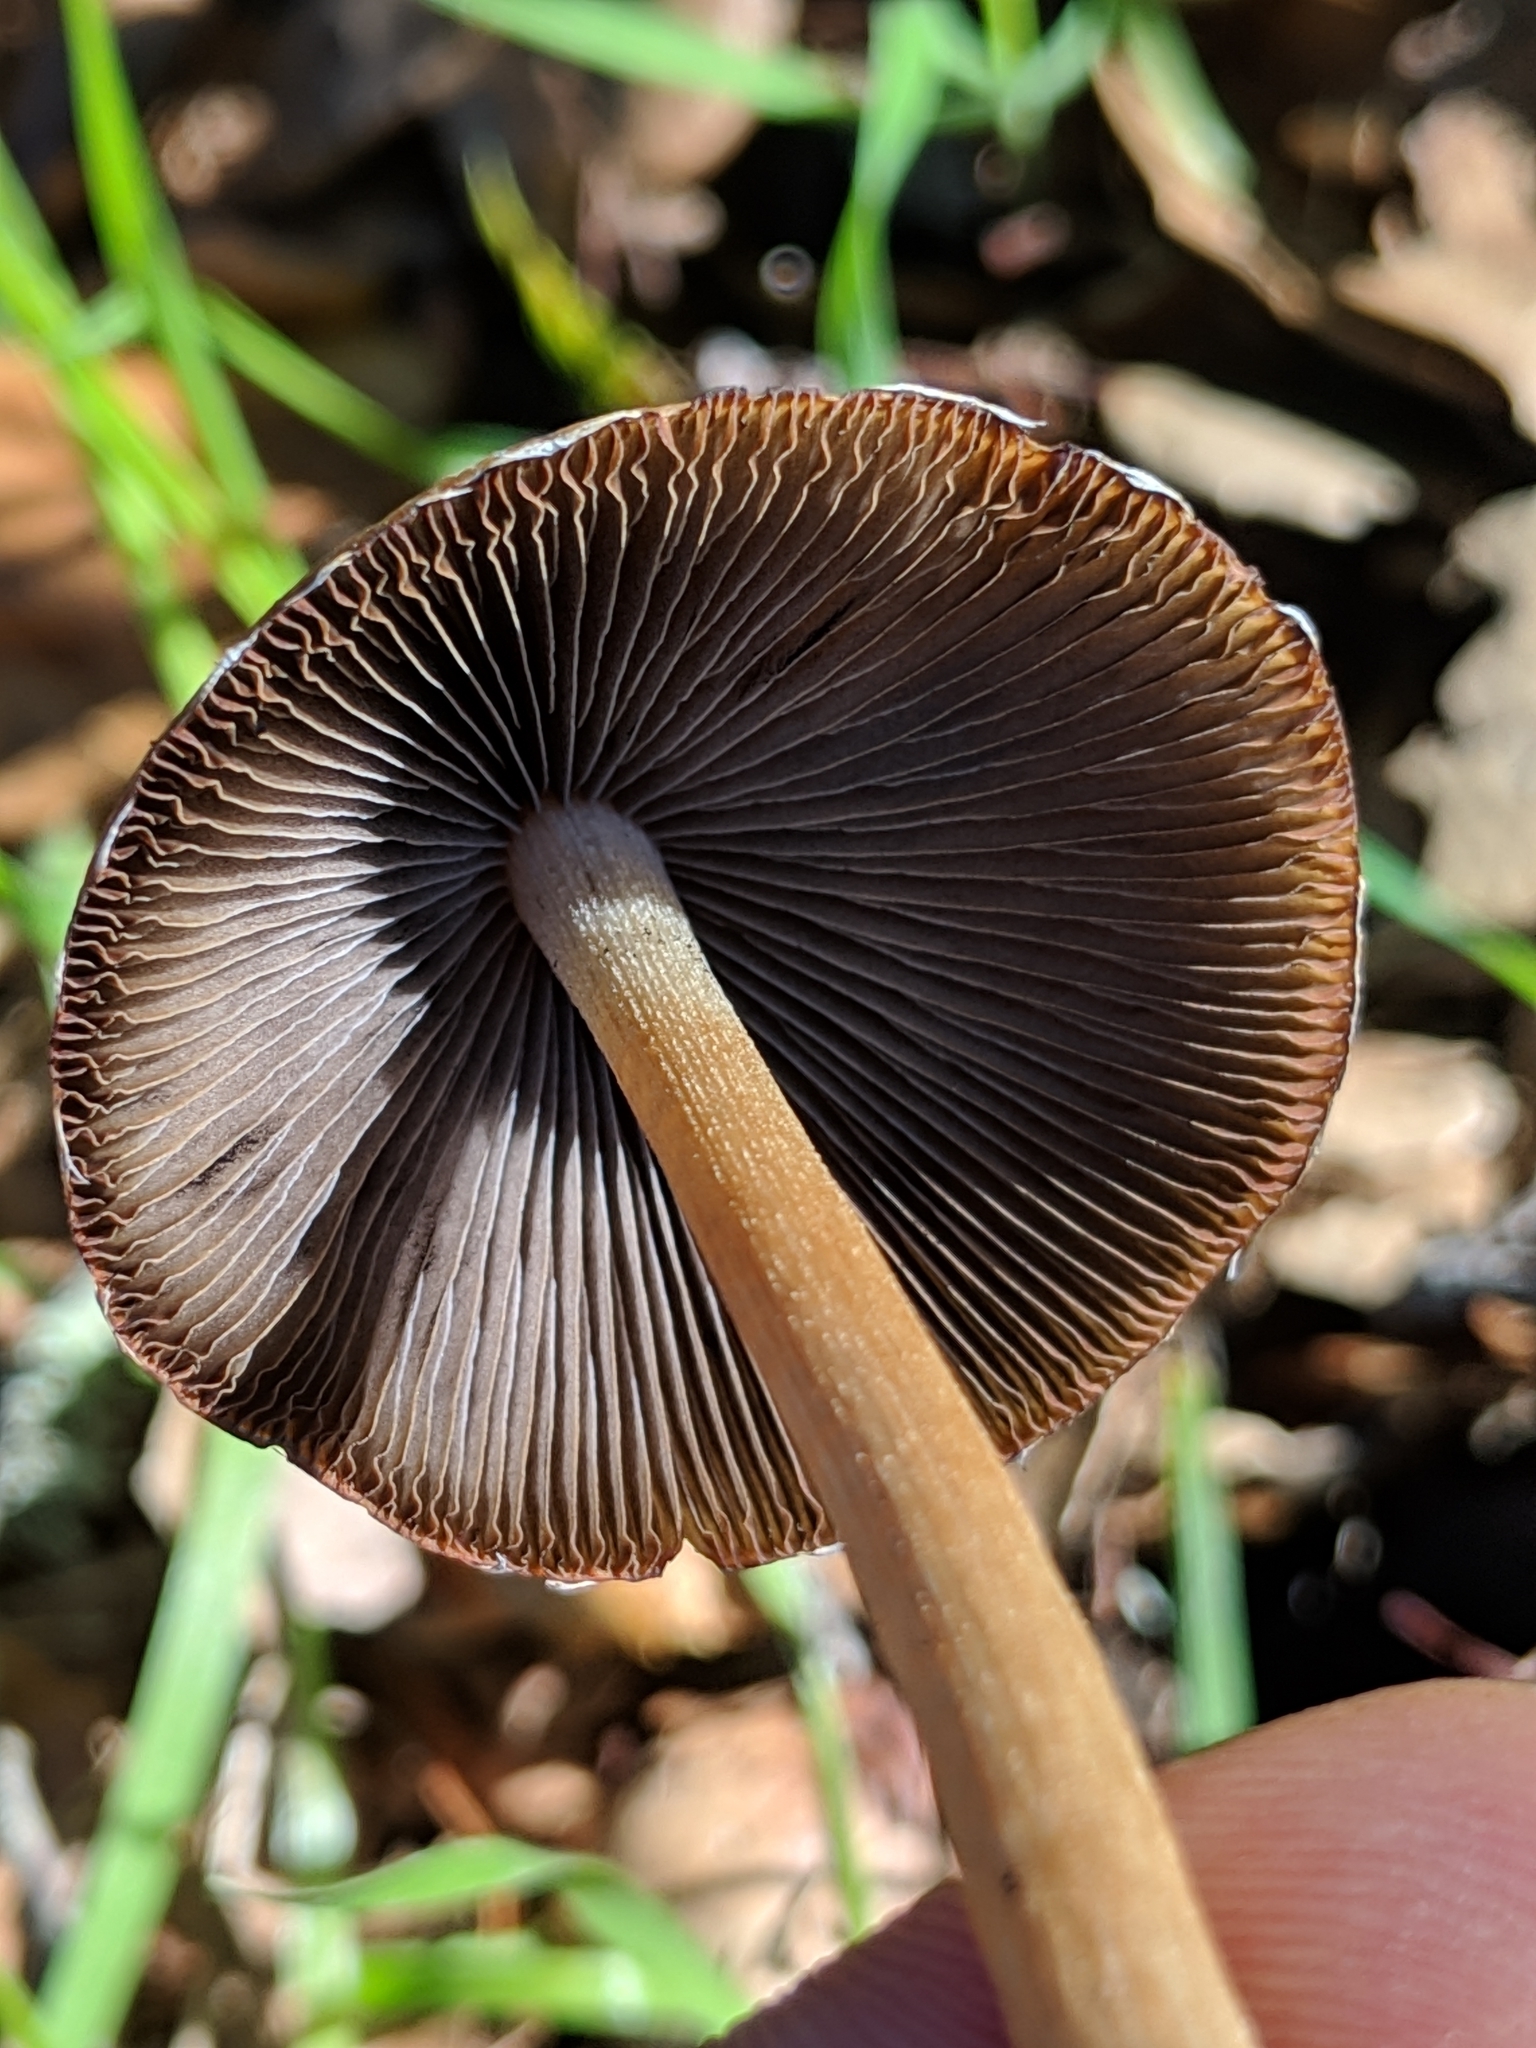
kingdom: Fungi
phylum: Basidiomycota
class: Agaricomycetes
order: Agaricales
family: Psathyrellaceae
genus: Psathyrella
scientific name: Psathyrella longipes
